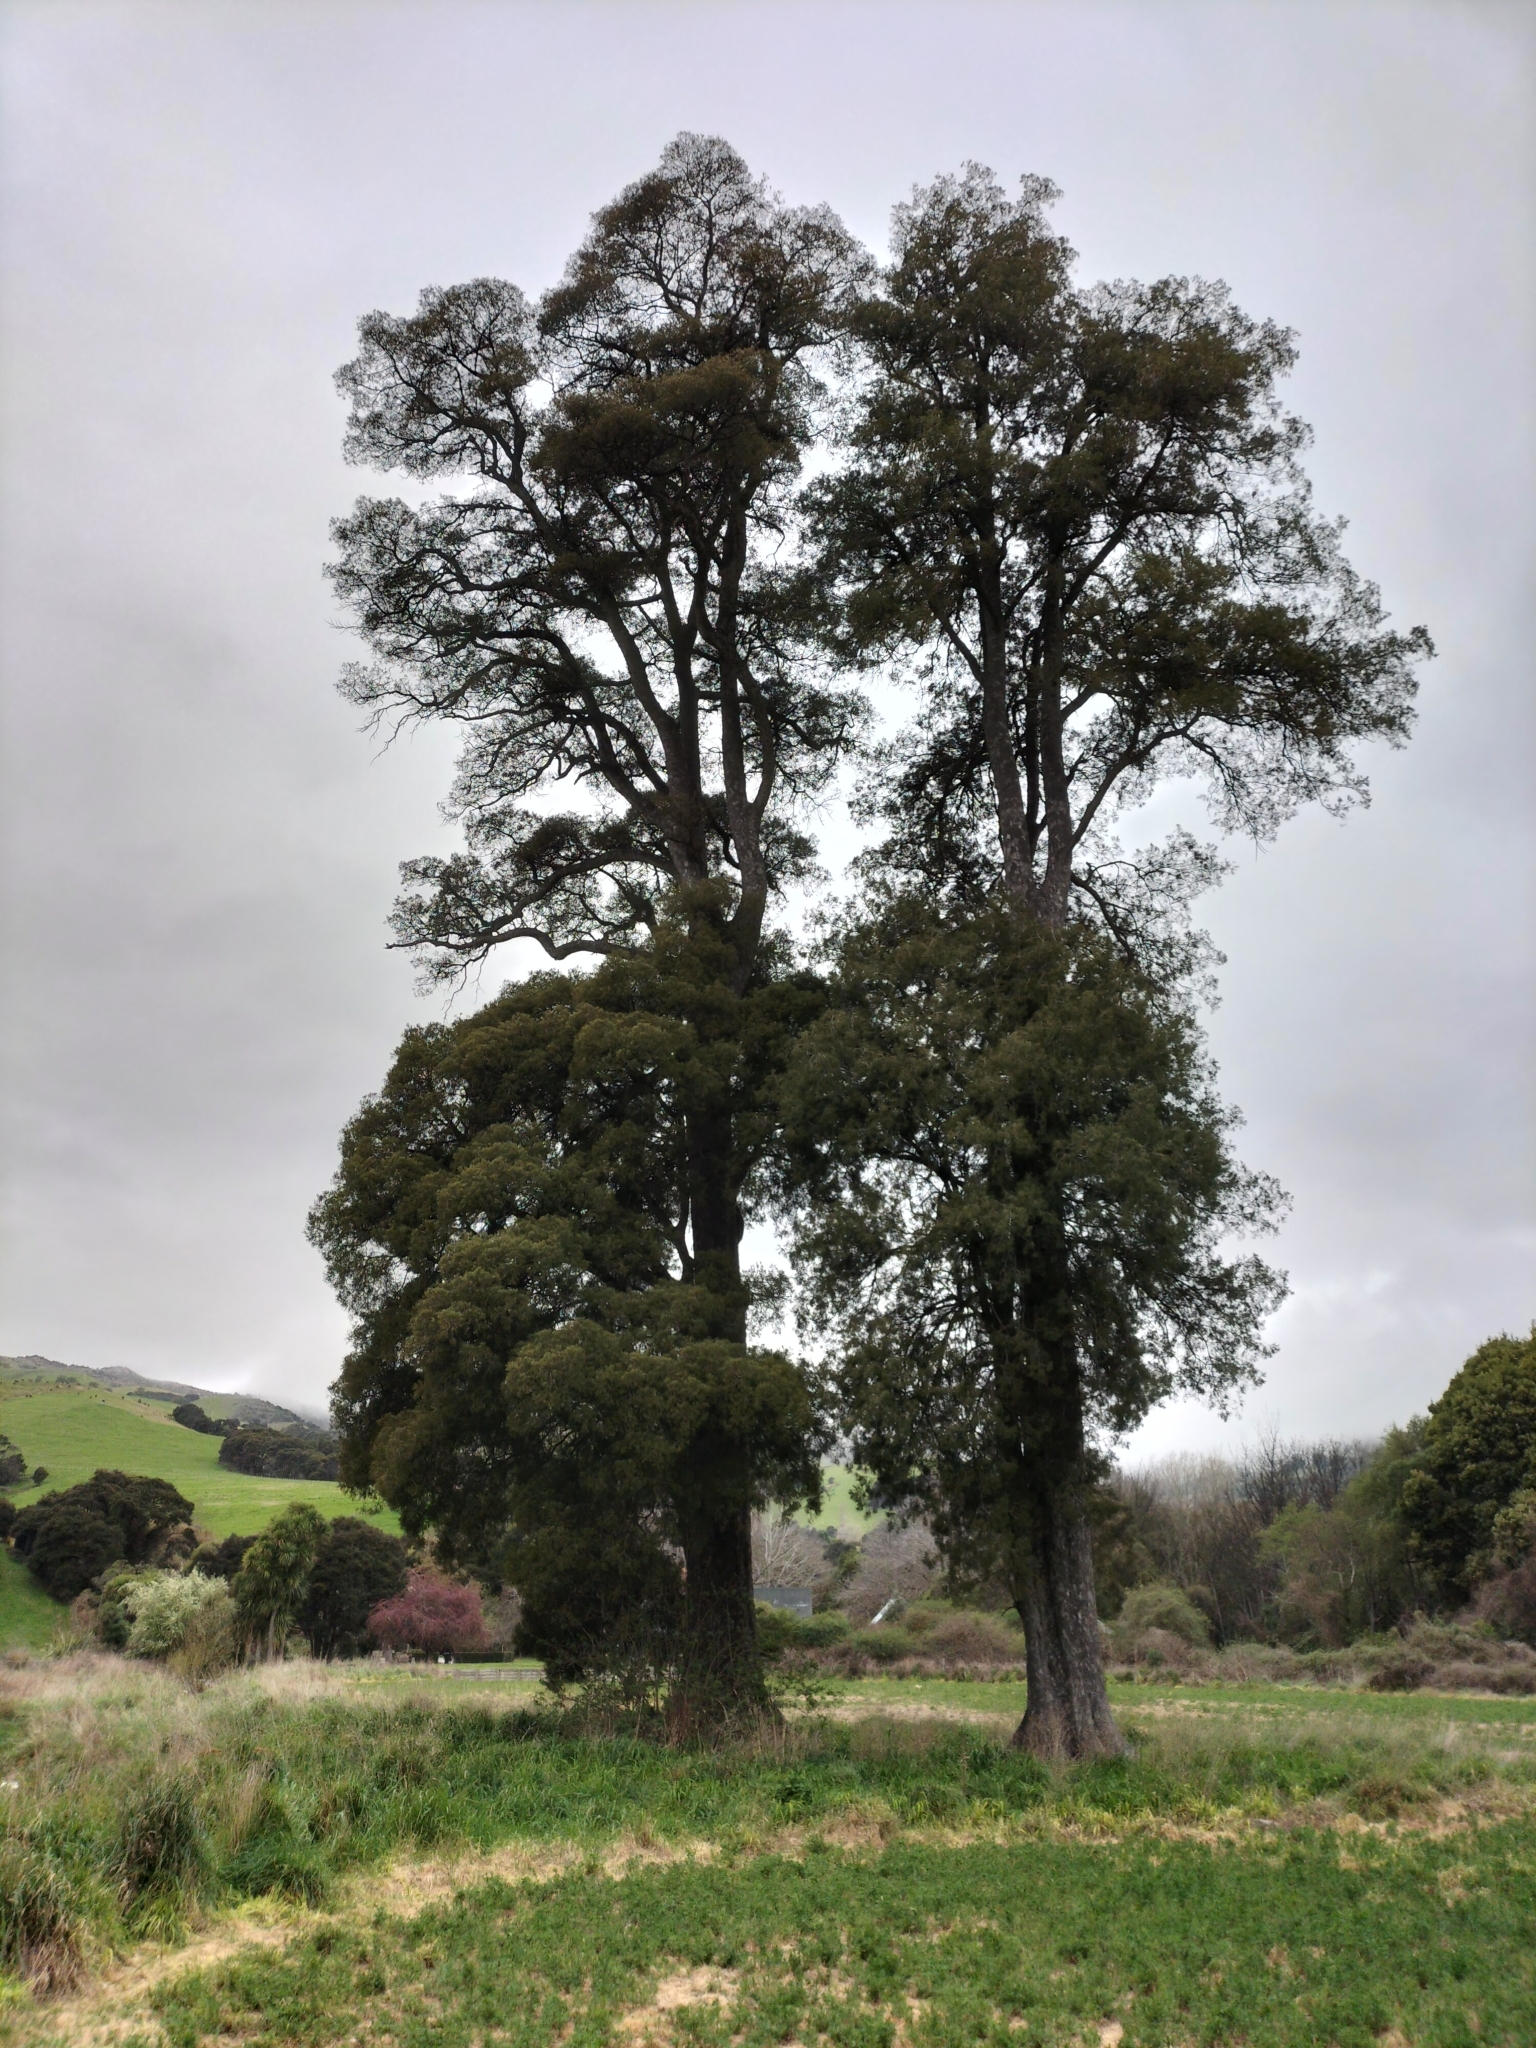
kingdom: Plantae
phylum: Tracheophyta
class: Pinopsida
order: Pinales
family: Podocarpaceae
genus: Dacrycarpus
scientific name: Dacrycarpus dacrydioides
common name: White pine
